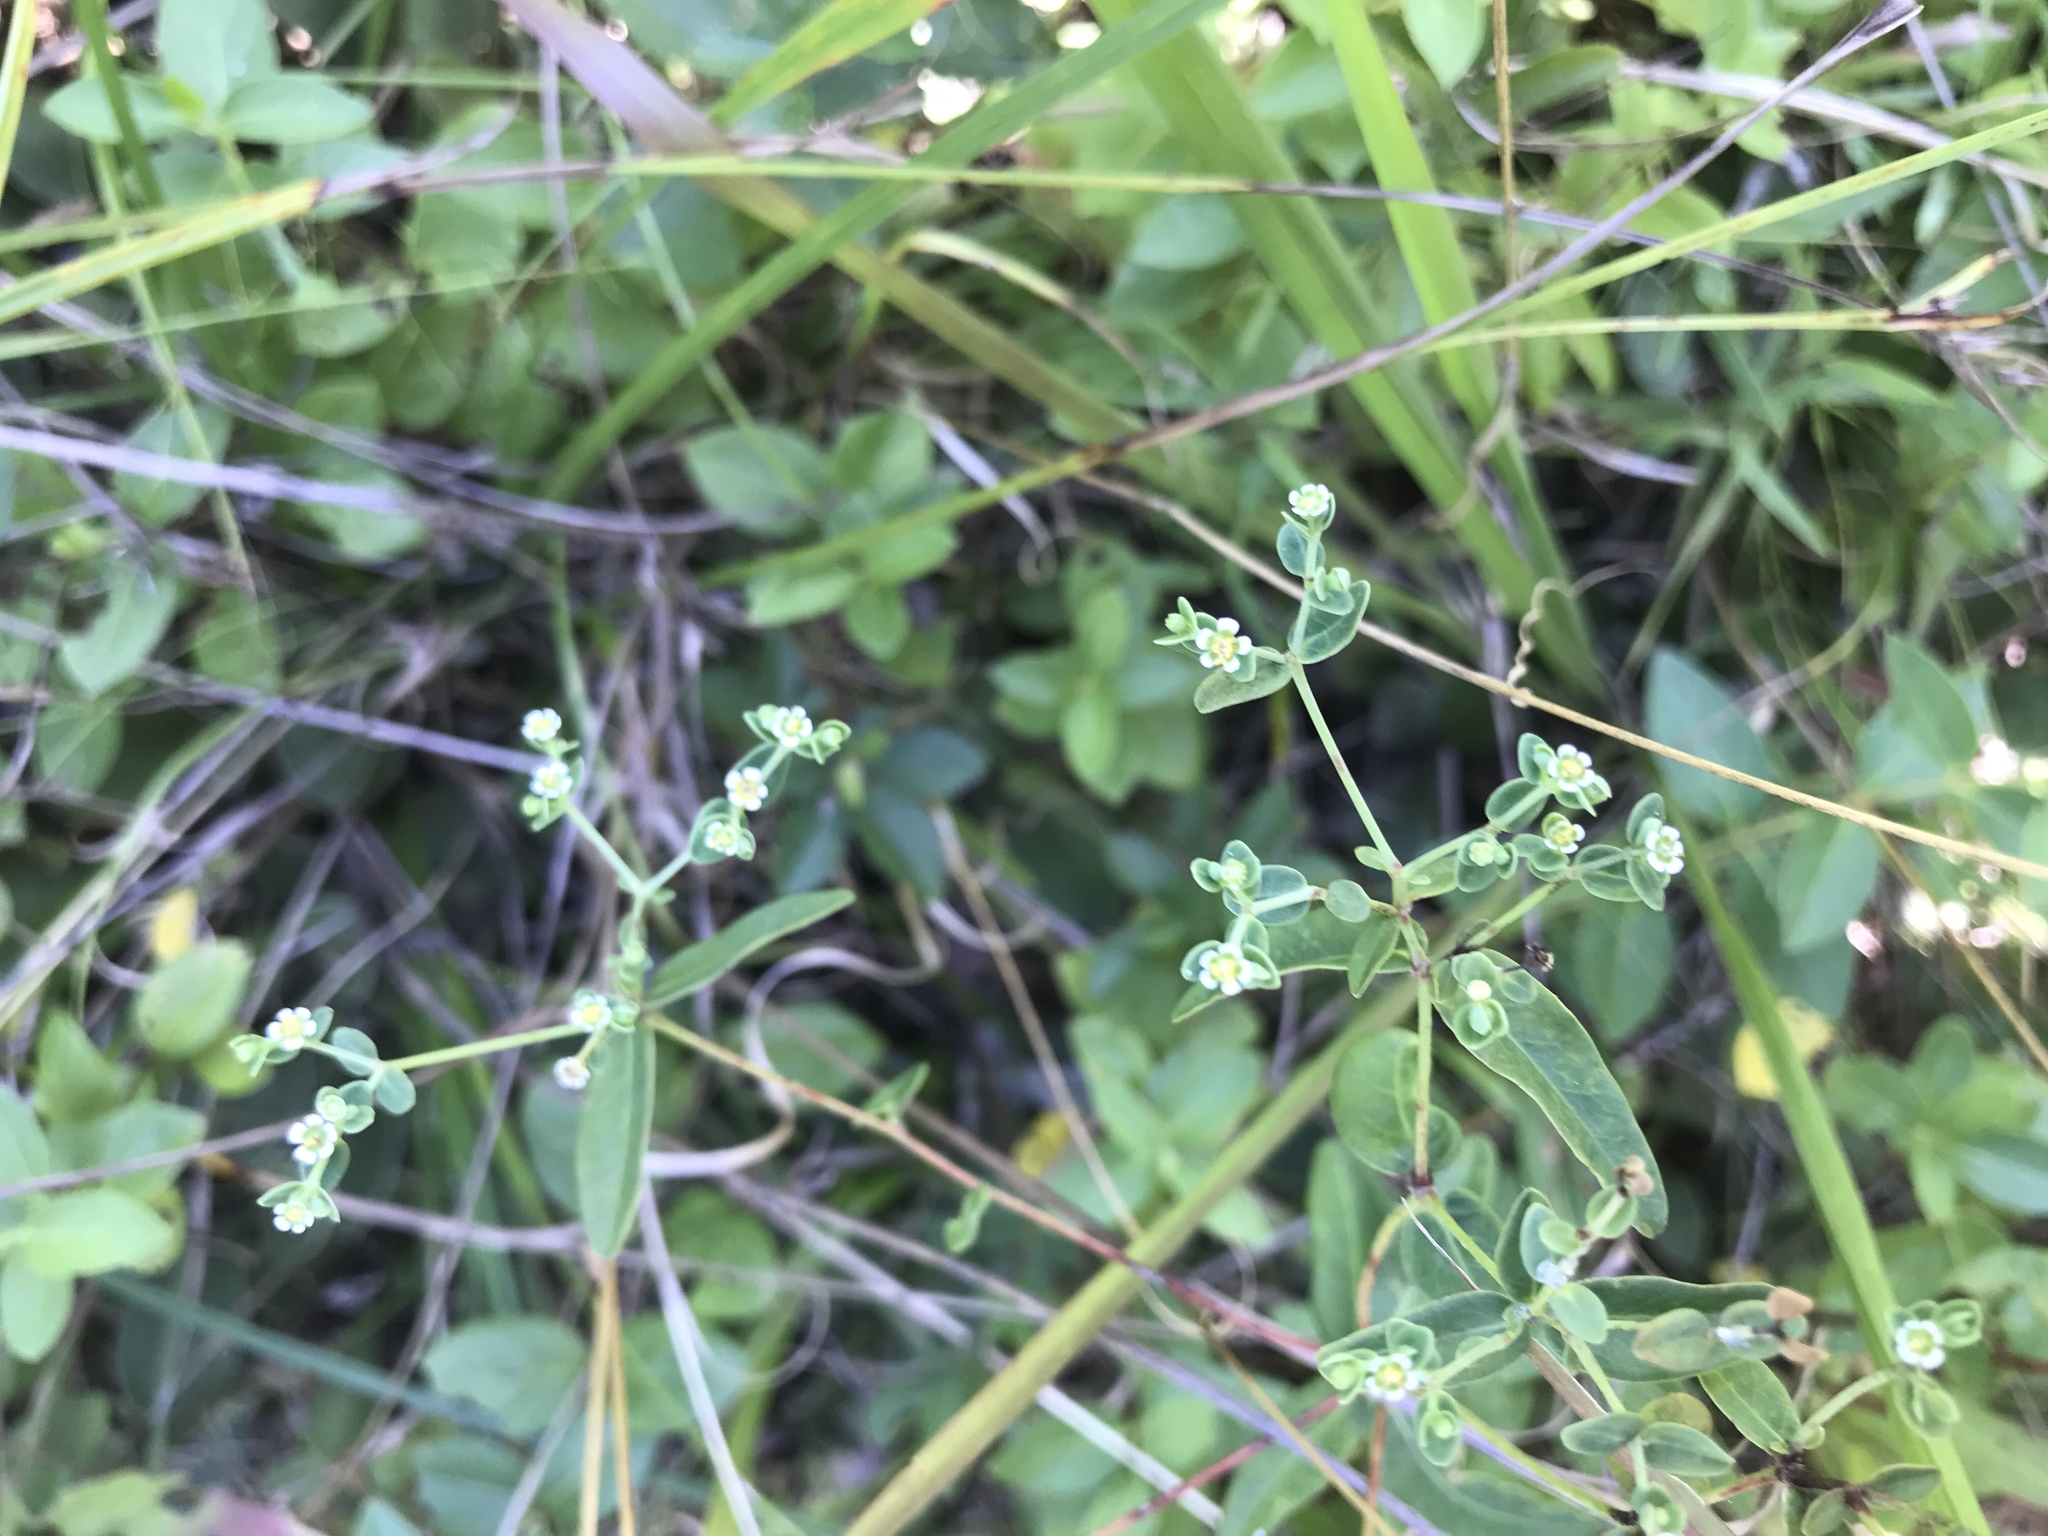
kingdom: Plantae
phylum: Tracheophyta
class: Magnoliopsida
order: Malpighiales
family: Euphorbiaceae
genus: Euphorbia
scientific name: Euphorbia pubentissima
